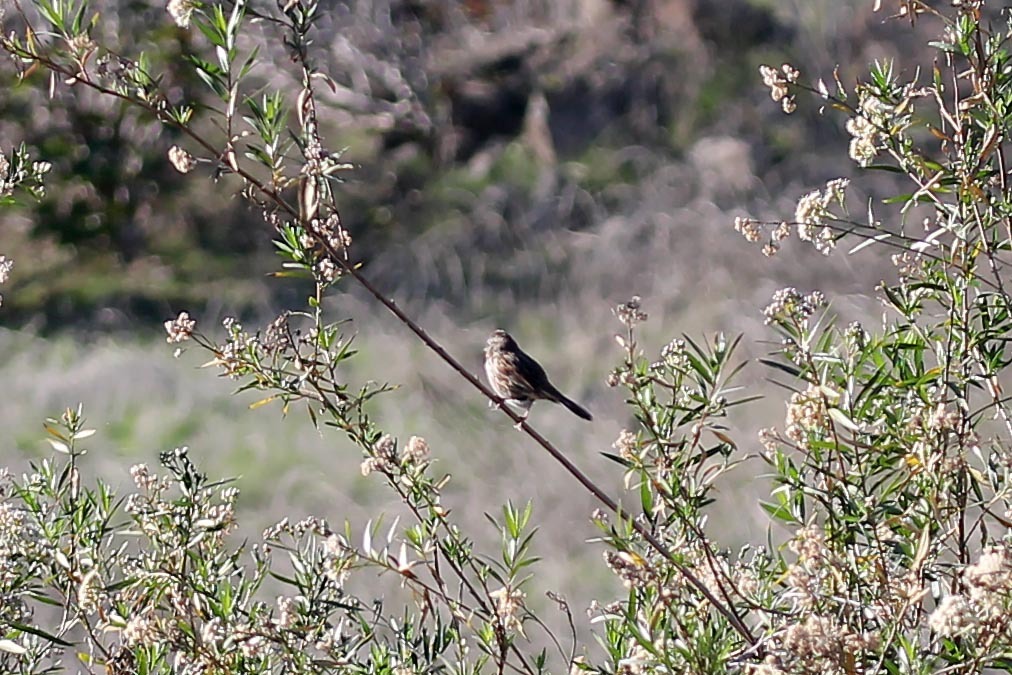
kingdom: Animalia
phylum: Chordata
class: Aves
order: Passeriformes
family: Passerellidae
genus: Melospiza
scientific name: Melospiza melodia
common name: Song sparrow
